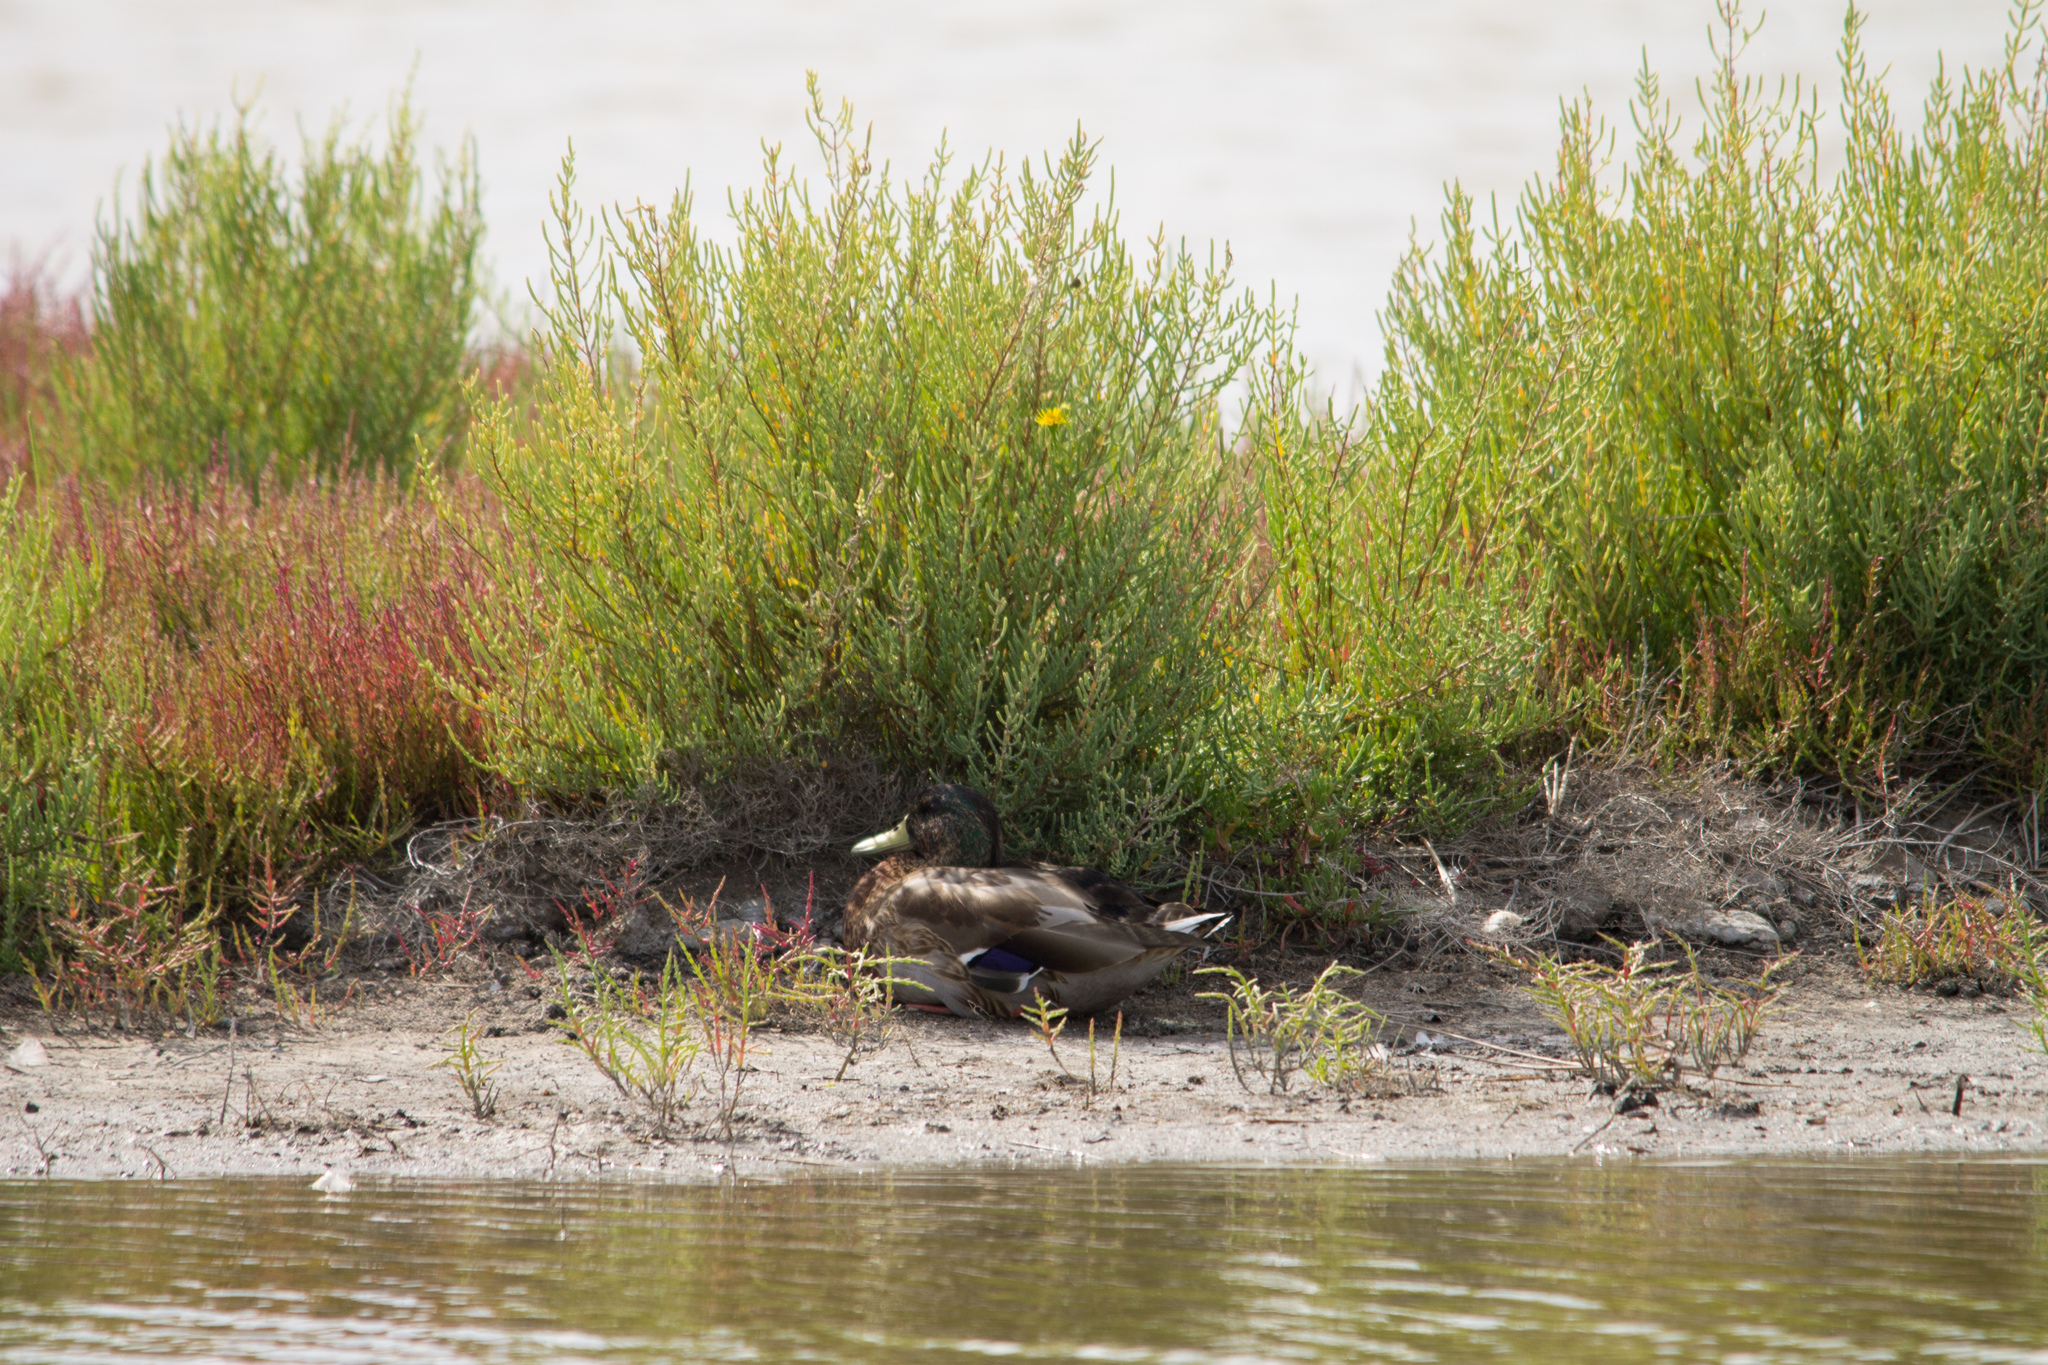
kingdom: Animalia
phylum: Chordata
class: Aves
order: Anseriformes
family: Anatidae
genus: Anas
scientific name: Anas platyrhynchos
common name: Mallard
